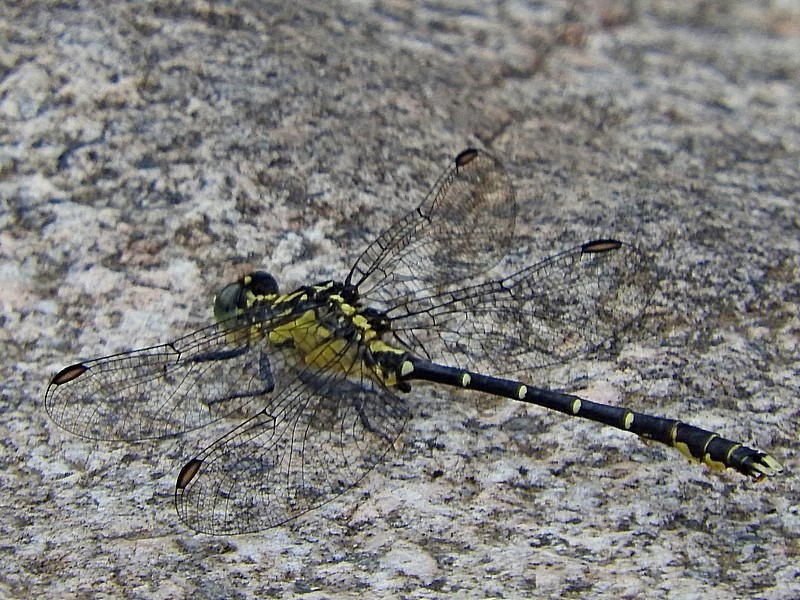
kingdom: Animalia
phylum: Arthropoda
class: Insecta
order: Odonata
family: Gomphidae
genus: Hemigomphus
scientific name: Hemigomphus gouldii
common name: Southern vicetail
